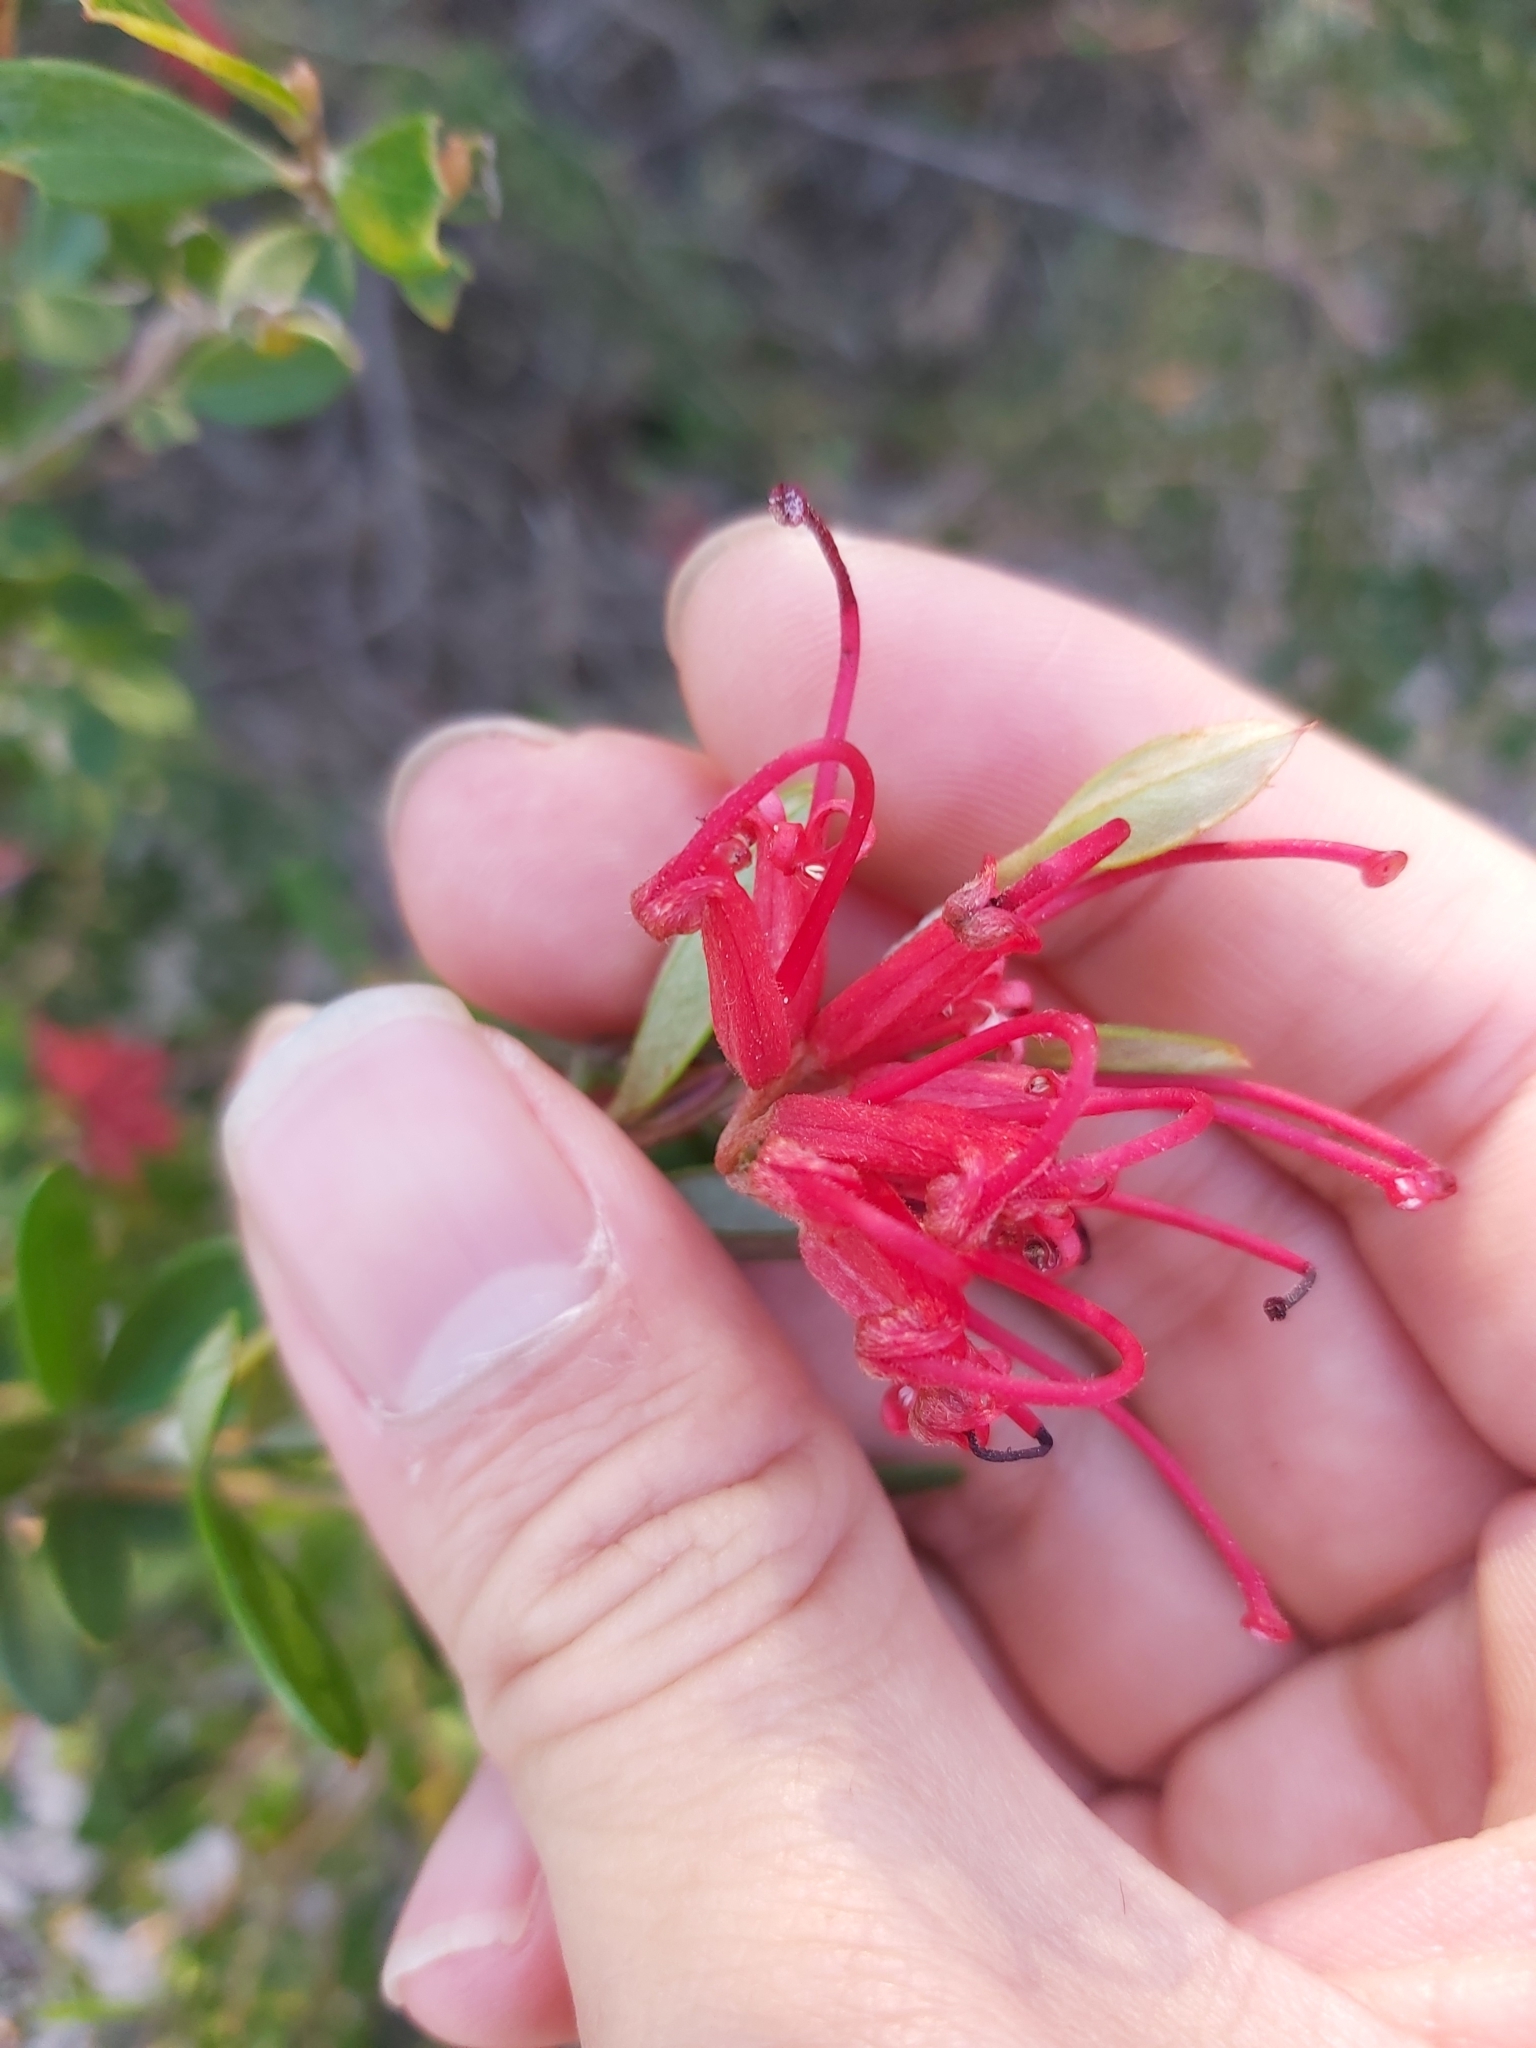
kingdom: Plantae
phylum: Tracheophyta
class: Magnoliopsida
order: Proteales
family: Proteaceae
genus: Grevillea
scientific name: Grevillea speciosa
